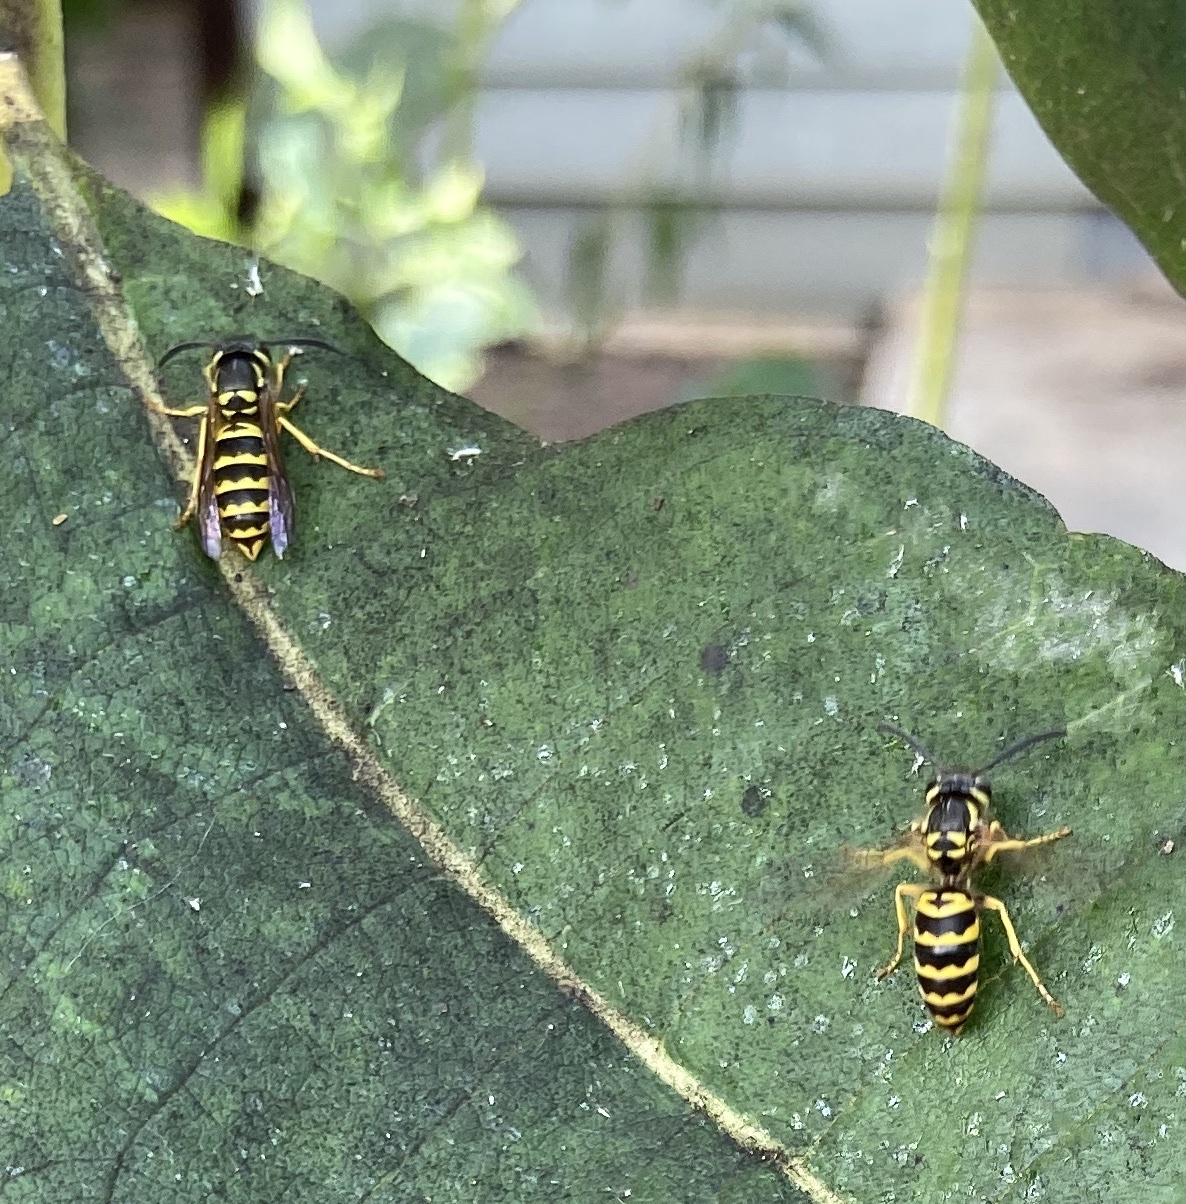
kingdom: Animalia
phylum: Arthropoda
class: Insecta
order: Hymenoptera
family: Vespidae
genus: Vespula
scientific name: Vespula maculifrons
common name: Eastern yellowjacket
